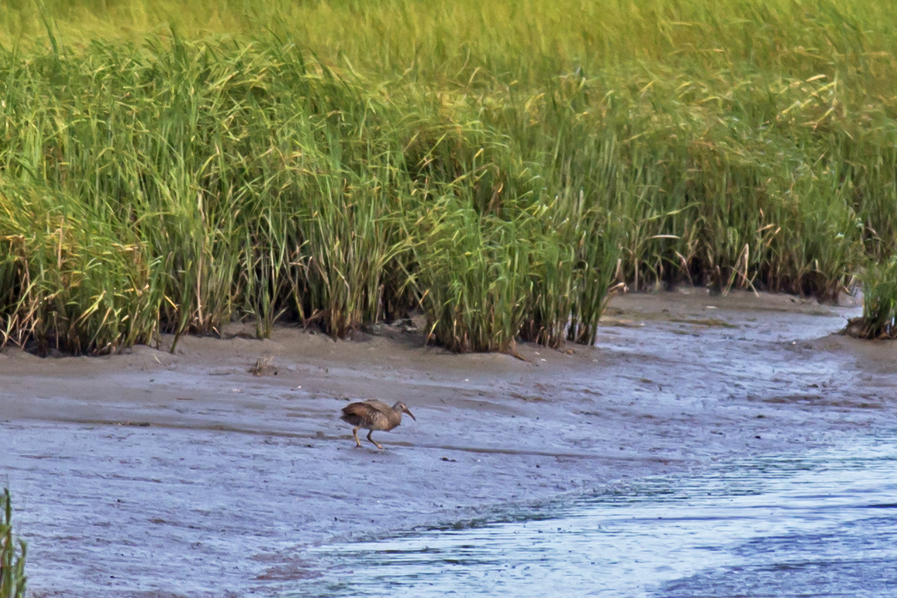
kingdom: Animalia
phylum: Chordata
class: Aves
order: Gruiformes
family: Rallidae
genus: Rallus
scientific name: Rallus crepitans
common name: Clapper rail
